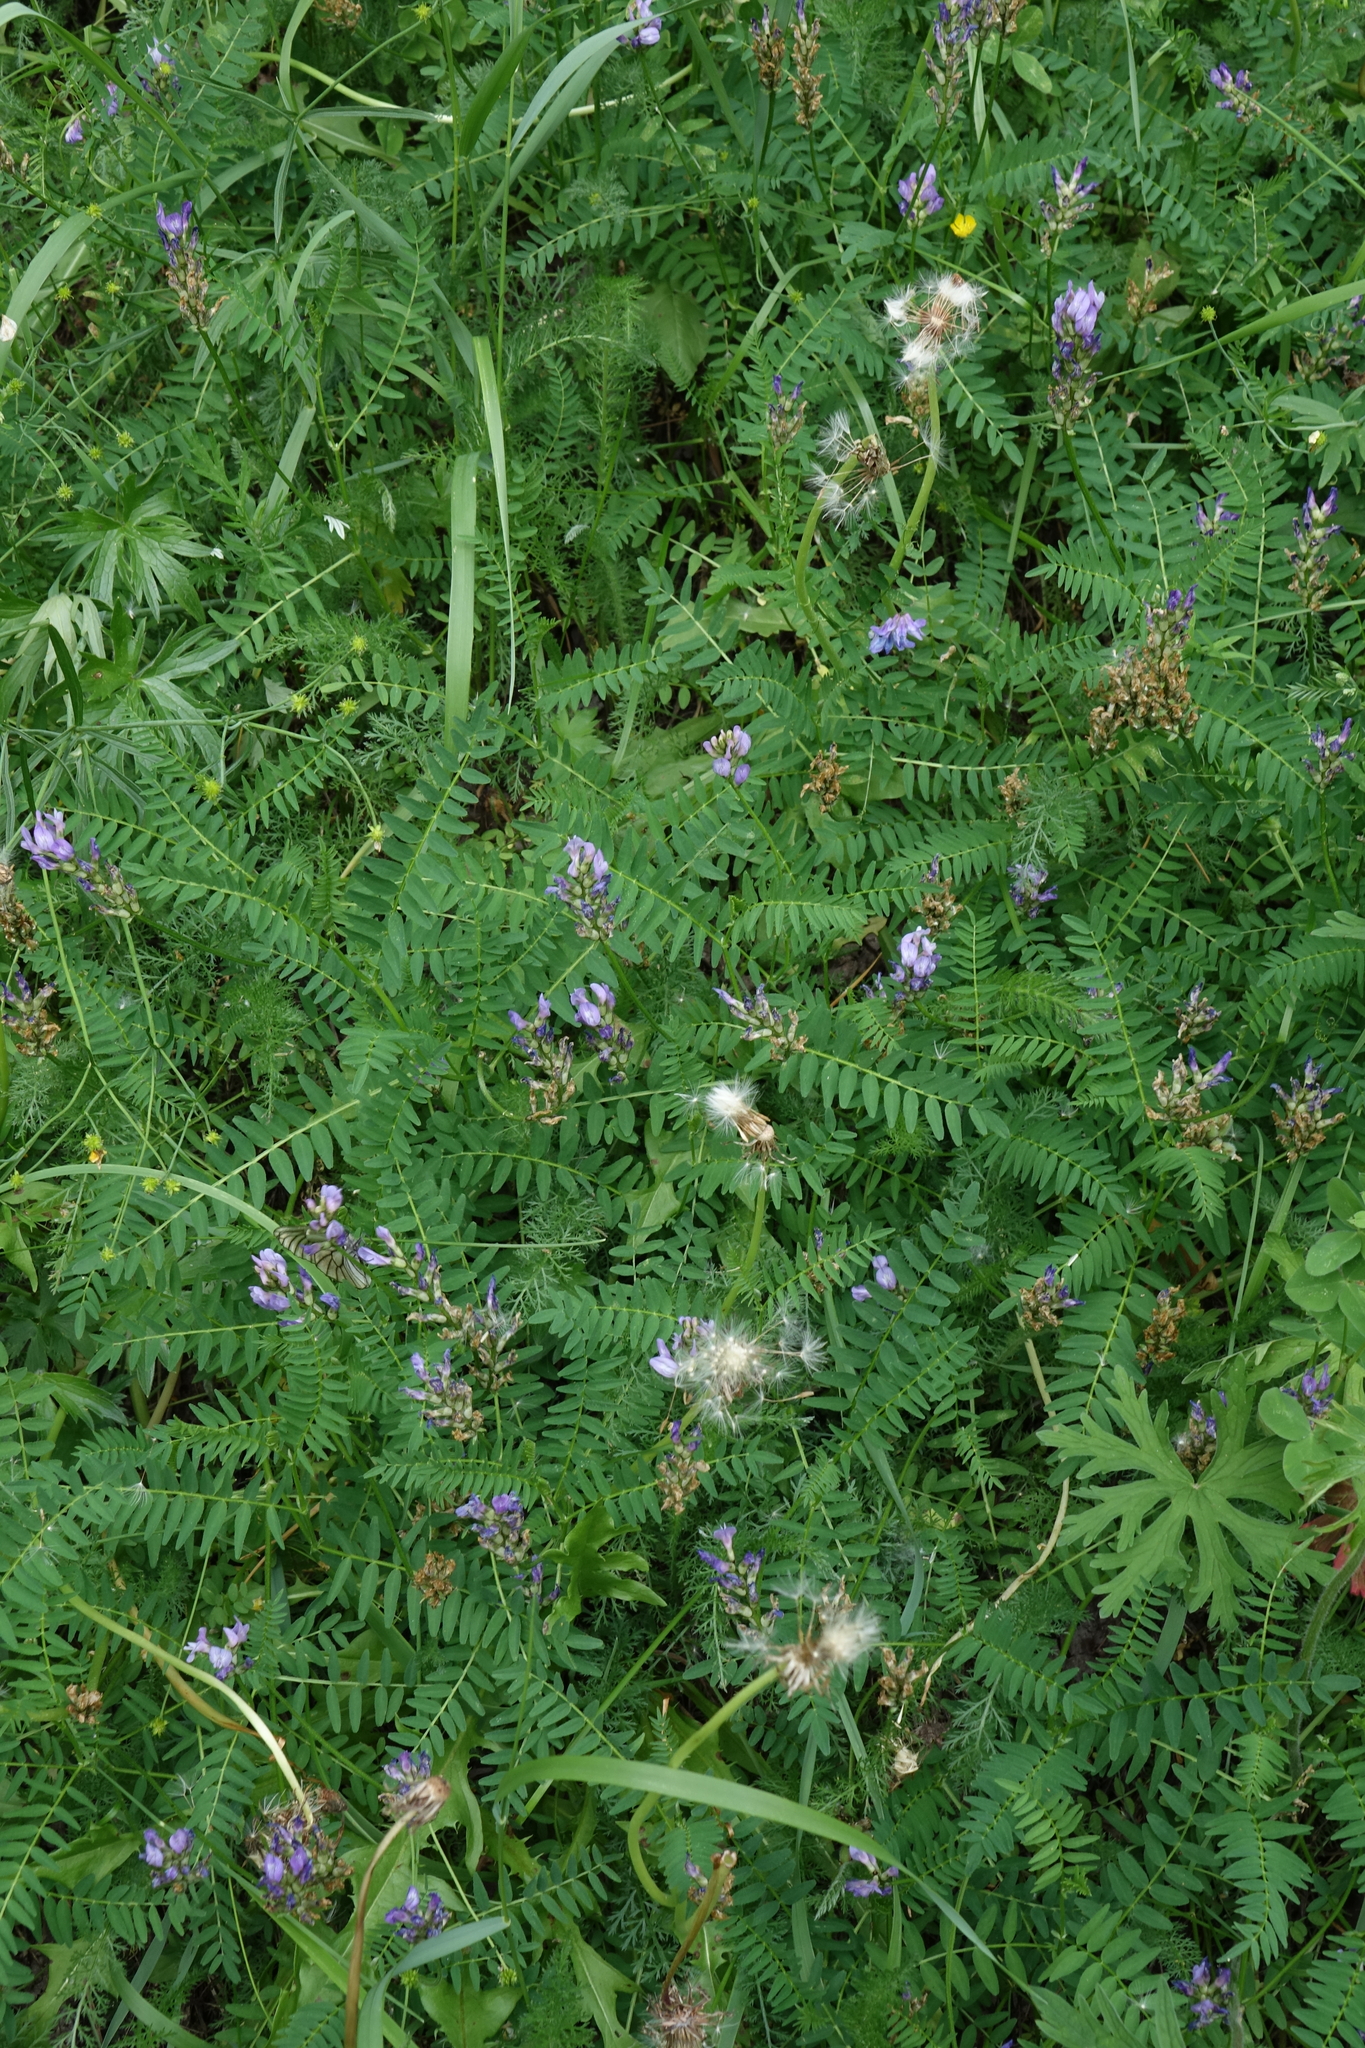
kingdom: Plantae
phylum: Tracheophyta
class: Magnoliopsida
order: Fabales
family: Fabaceae
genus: Astragalus
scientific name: Astragalus danicus
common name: Purple milk-vetch
